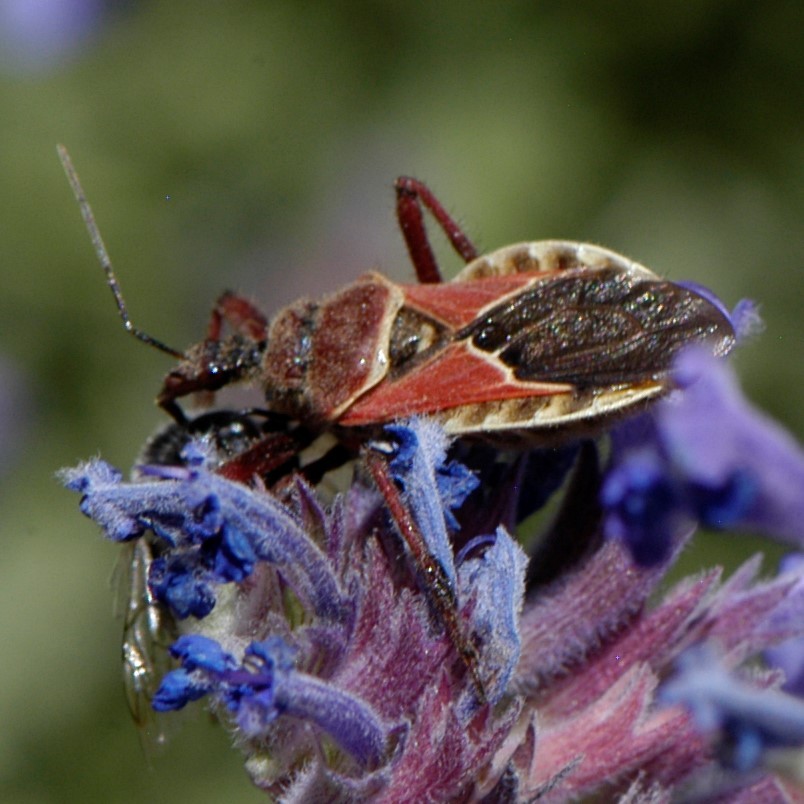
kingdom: Animalia
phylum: Arthropoda
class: Insecta
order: Hemiptera
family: Reduviidae
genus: Apiomerus
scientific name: Apiomerus spissipes
